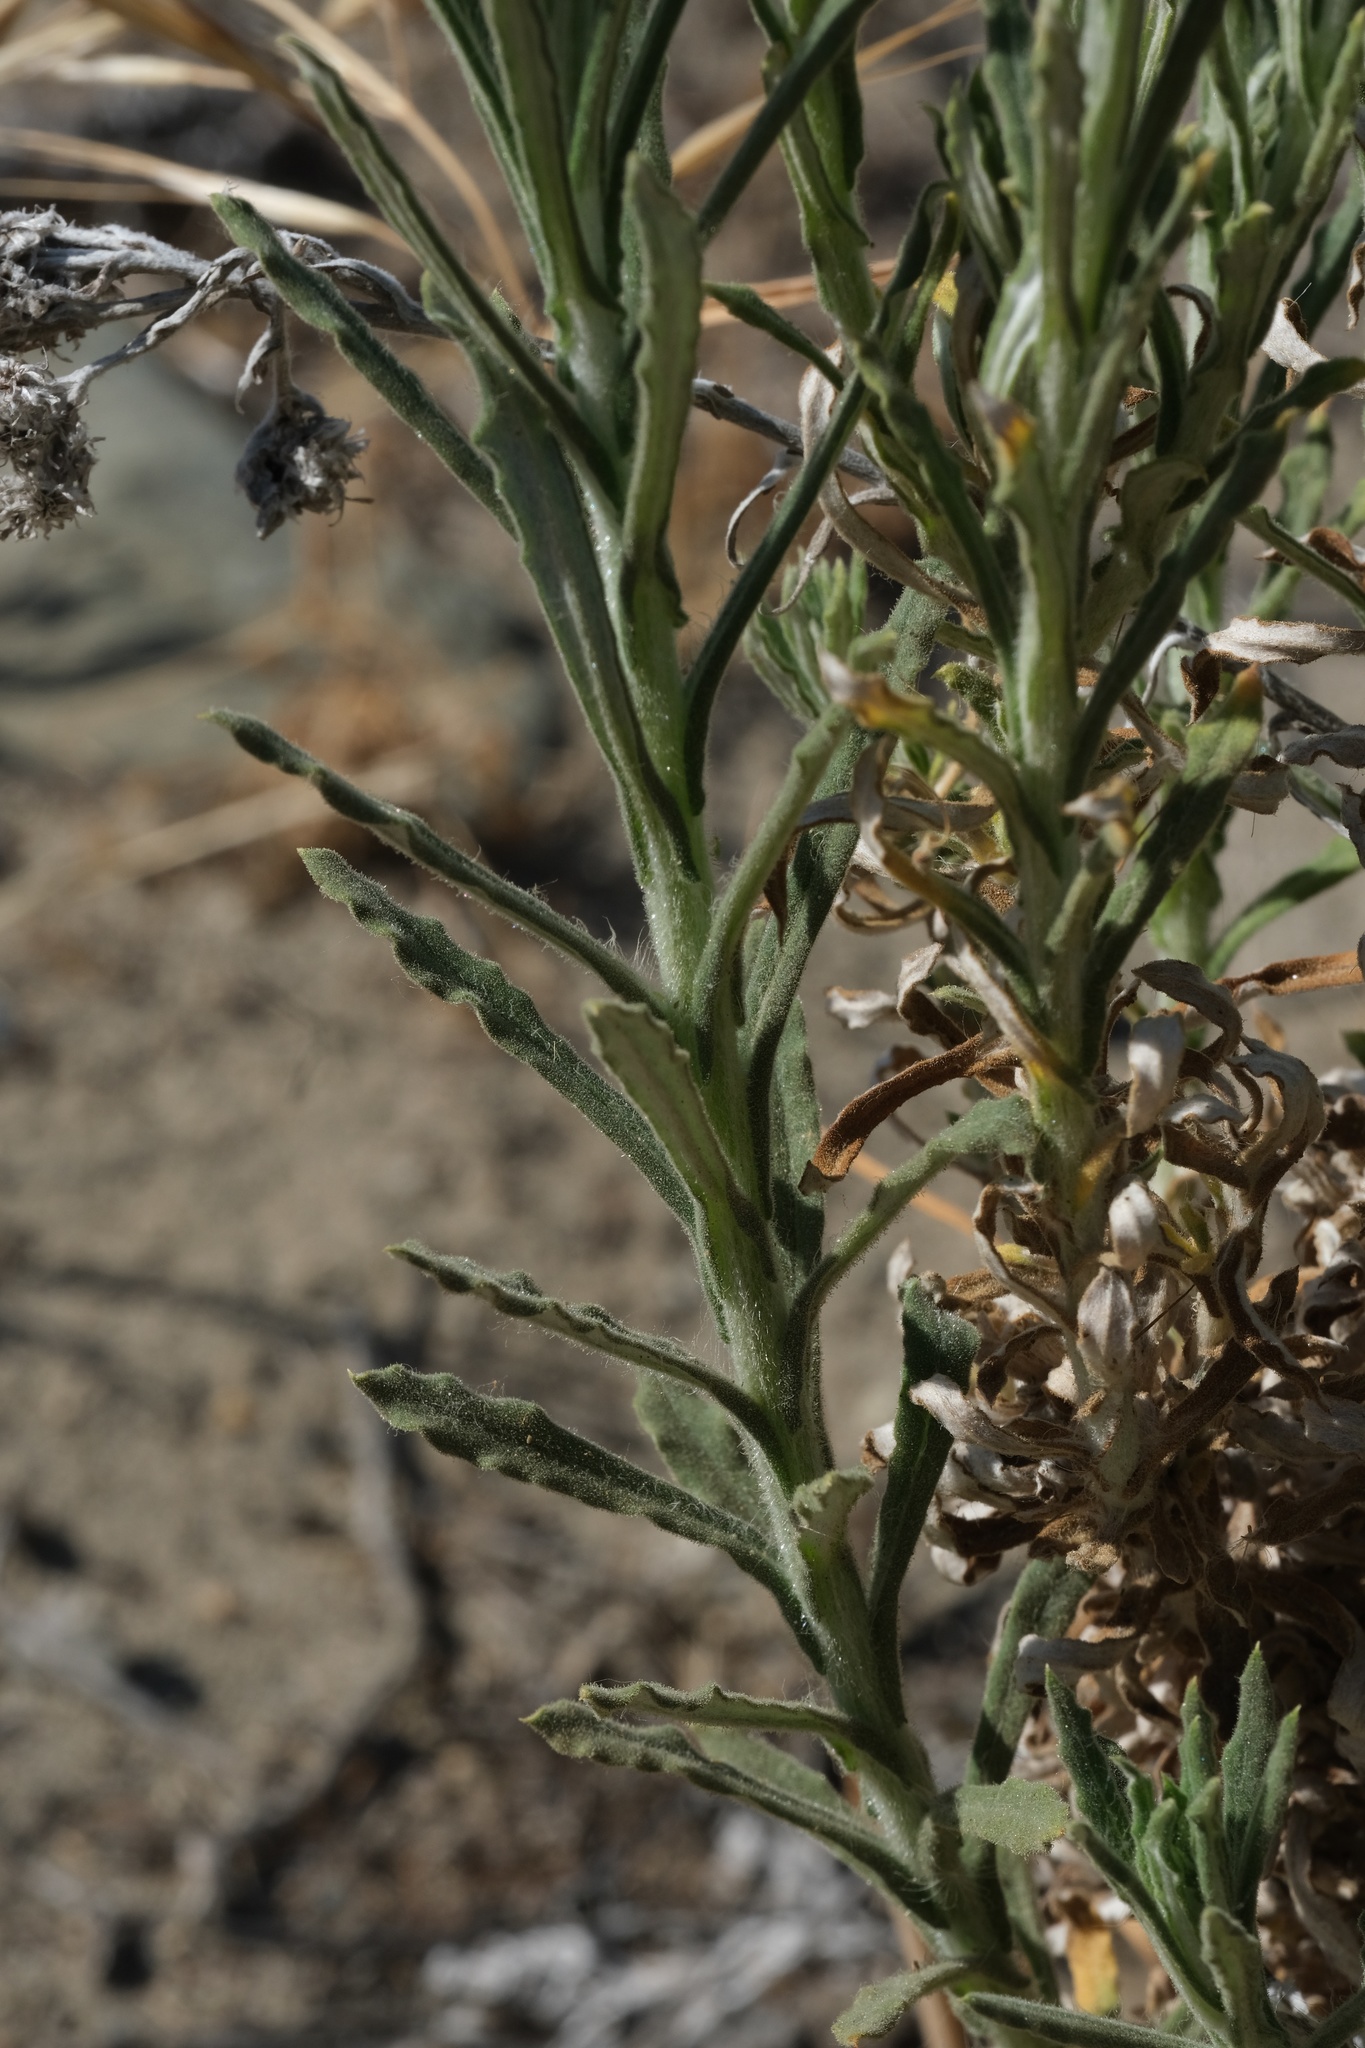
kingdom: Plantae
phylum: Tracheophyta
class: Magnoliopsida
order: Asterales
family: Asteraceae
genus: Pseudognaphalium
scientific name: Pseudognaphalium leucocephalum
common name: White cudweed
